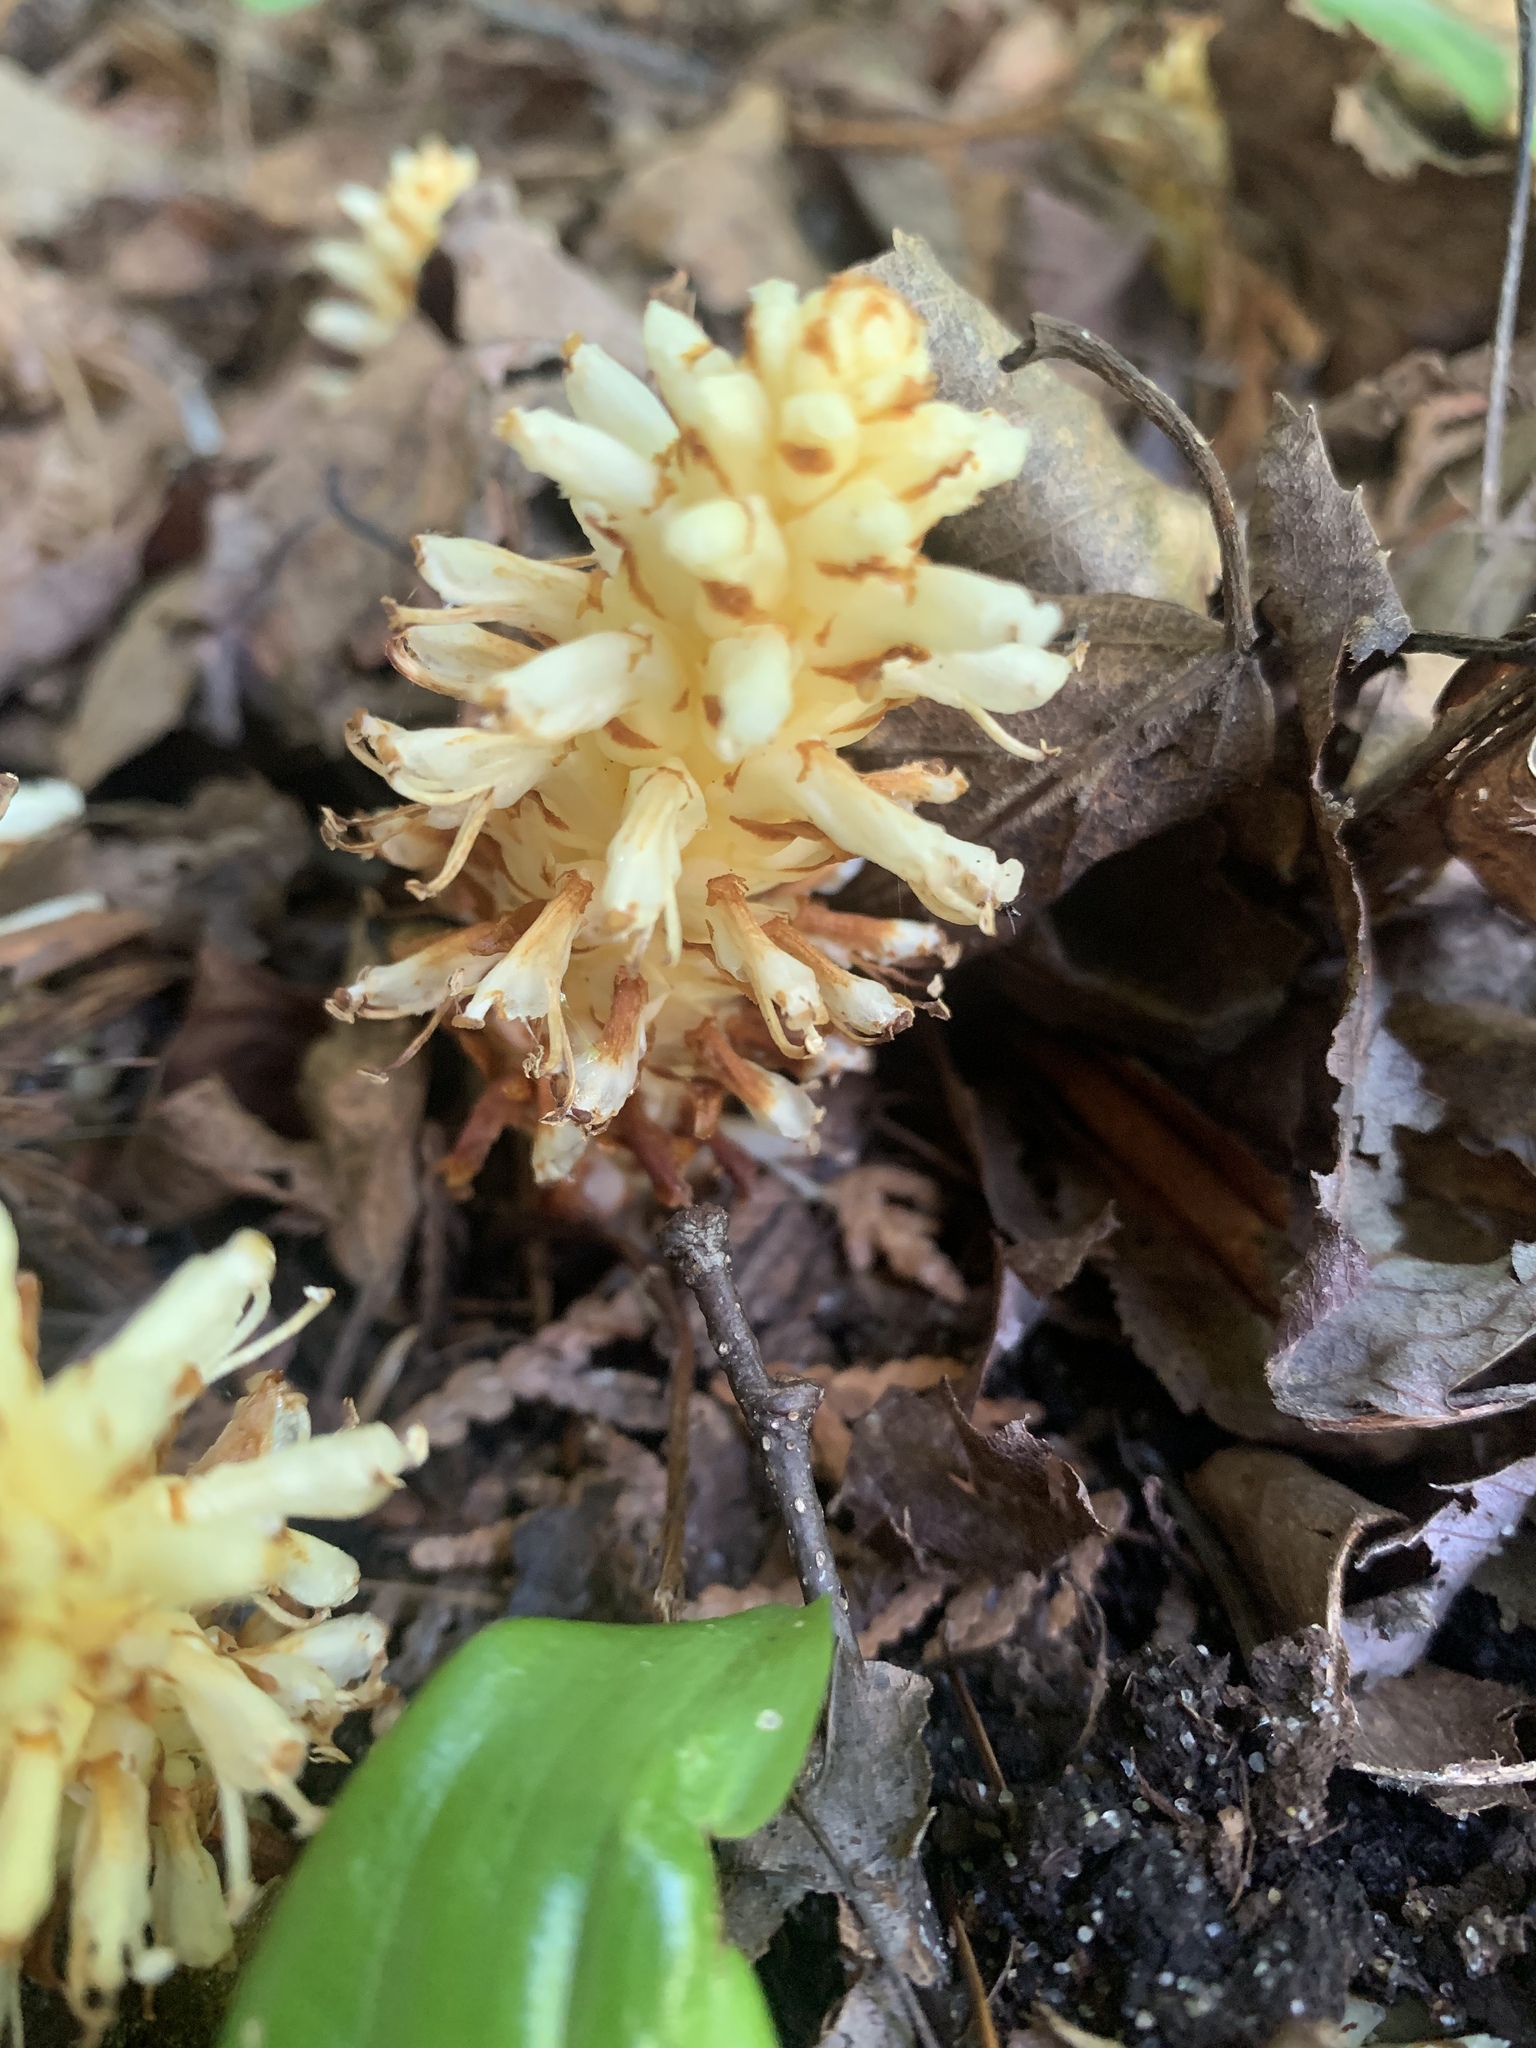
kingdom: Plantae
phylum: Tracheophyta
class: Magnoliopsida
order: Lamiales
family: Orobanchaceae
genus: Conopholis
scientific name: Conopholis americana
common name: American cancer-root
